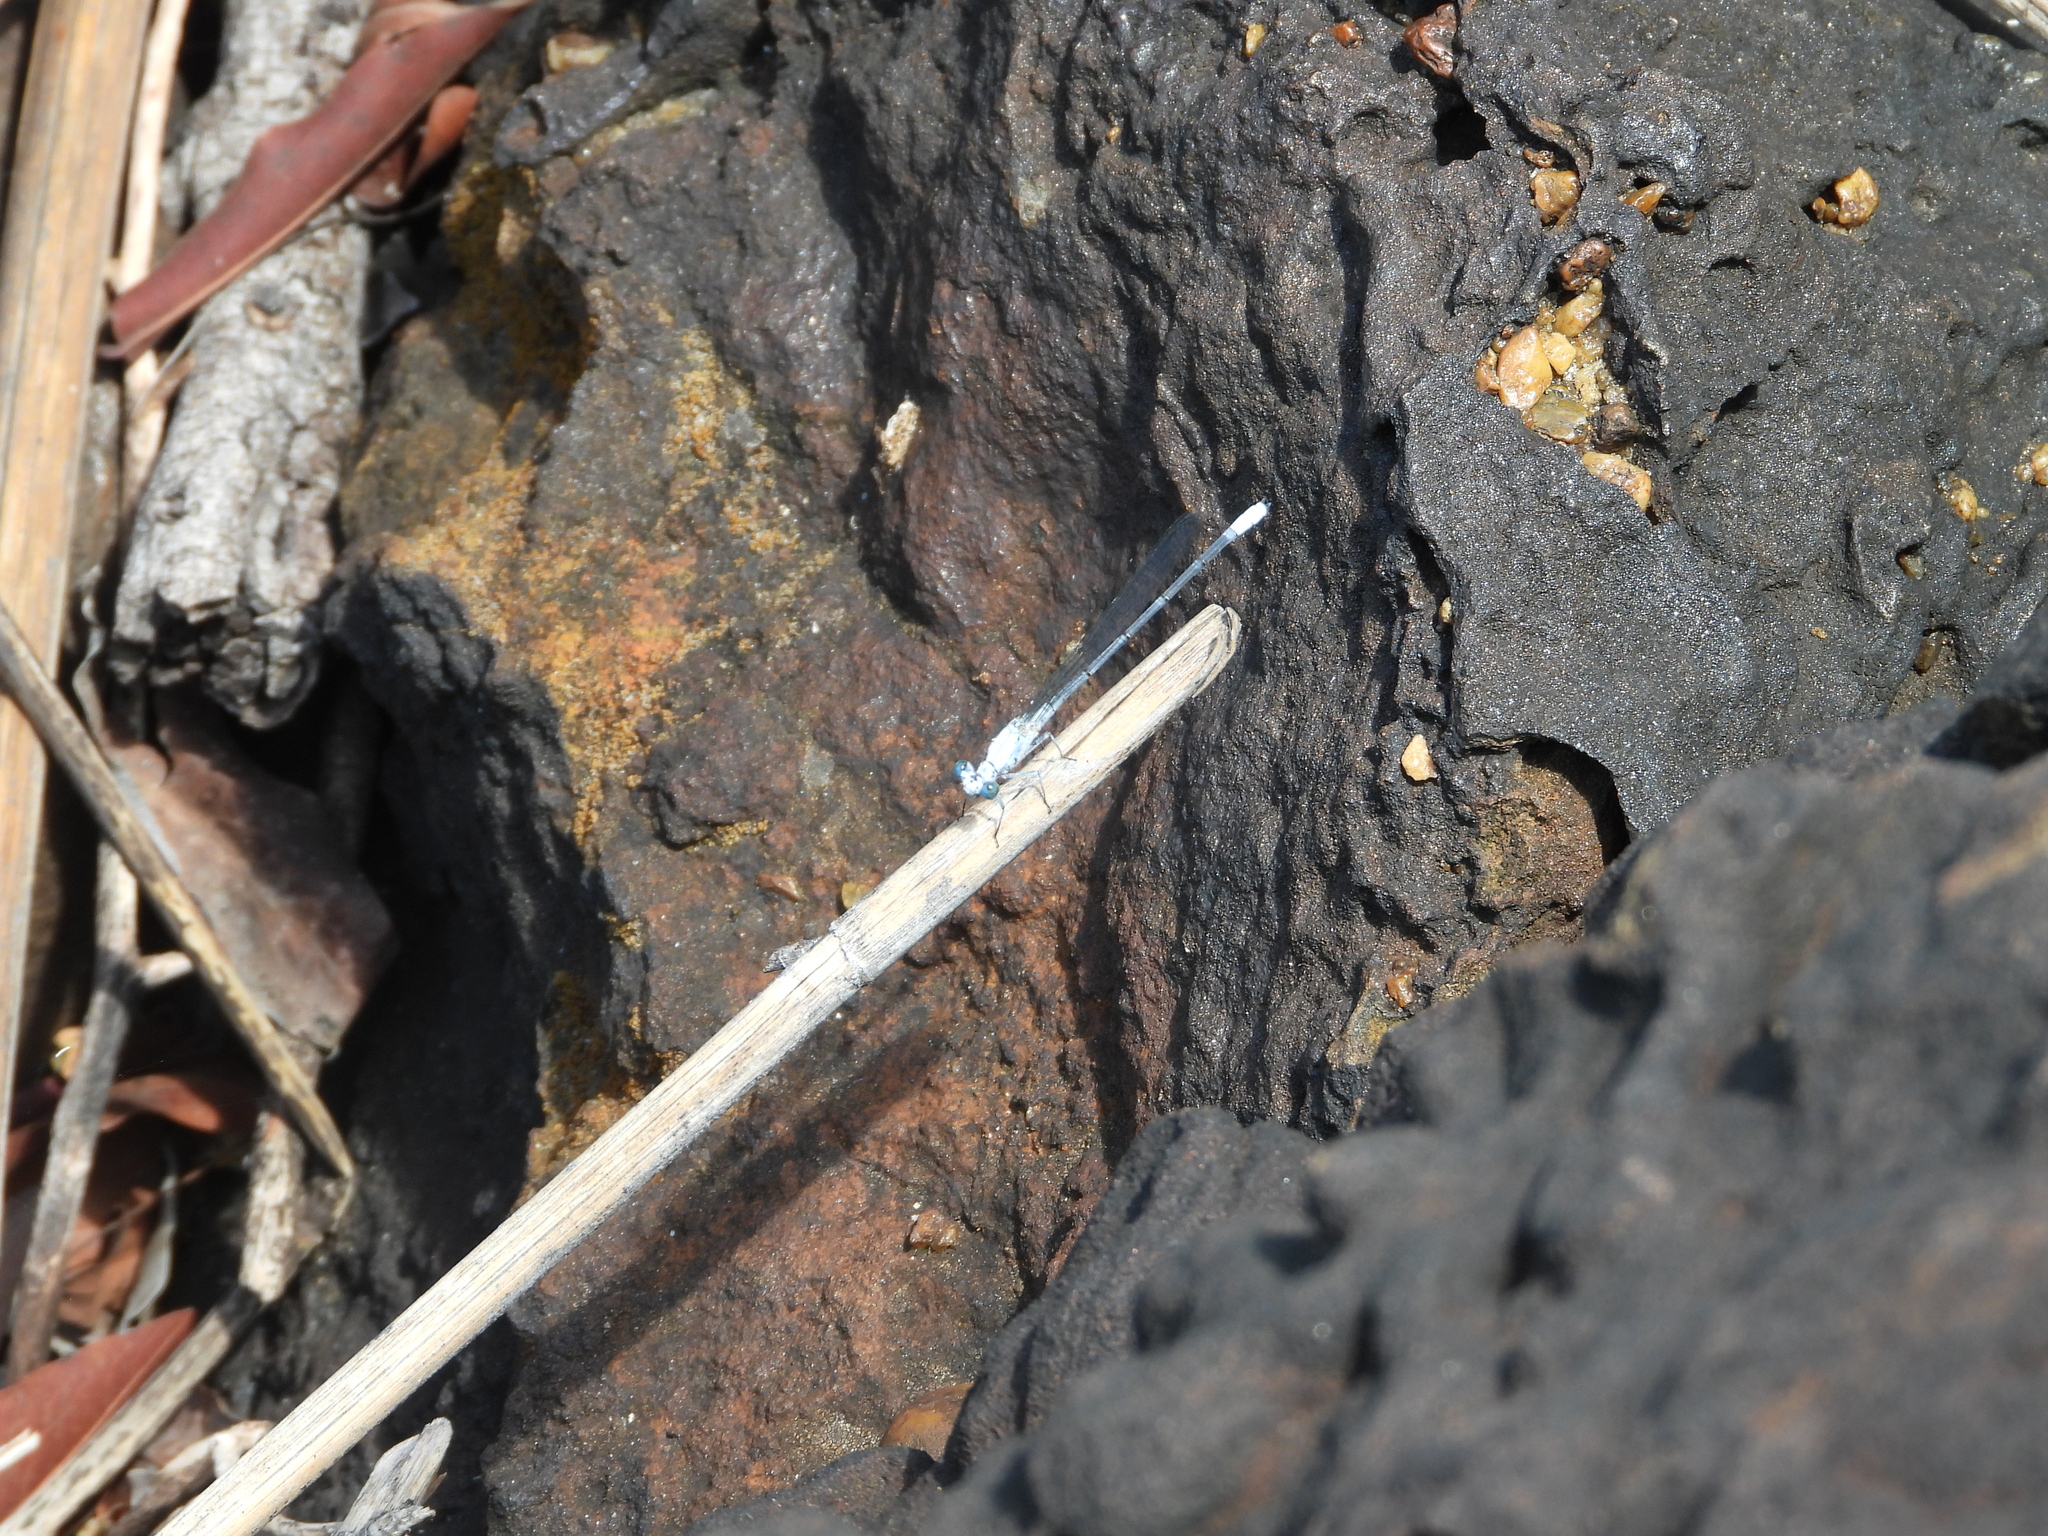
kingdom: Animalia
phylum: Arthropoda
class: Insecta
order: Odonata
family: Platycnemididae
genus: Mesocnemis
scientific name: Mesocnemis singularis
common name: Common riverjack
